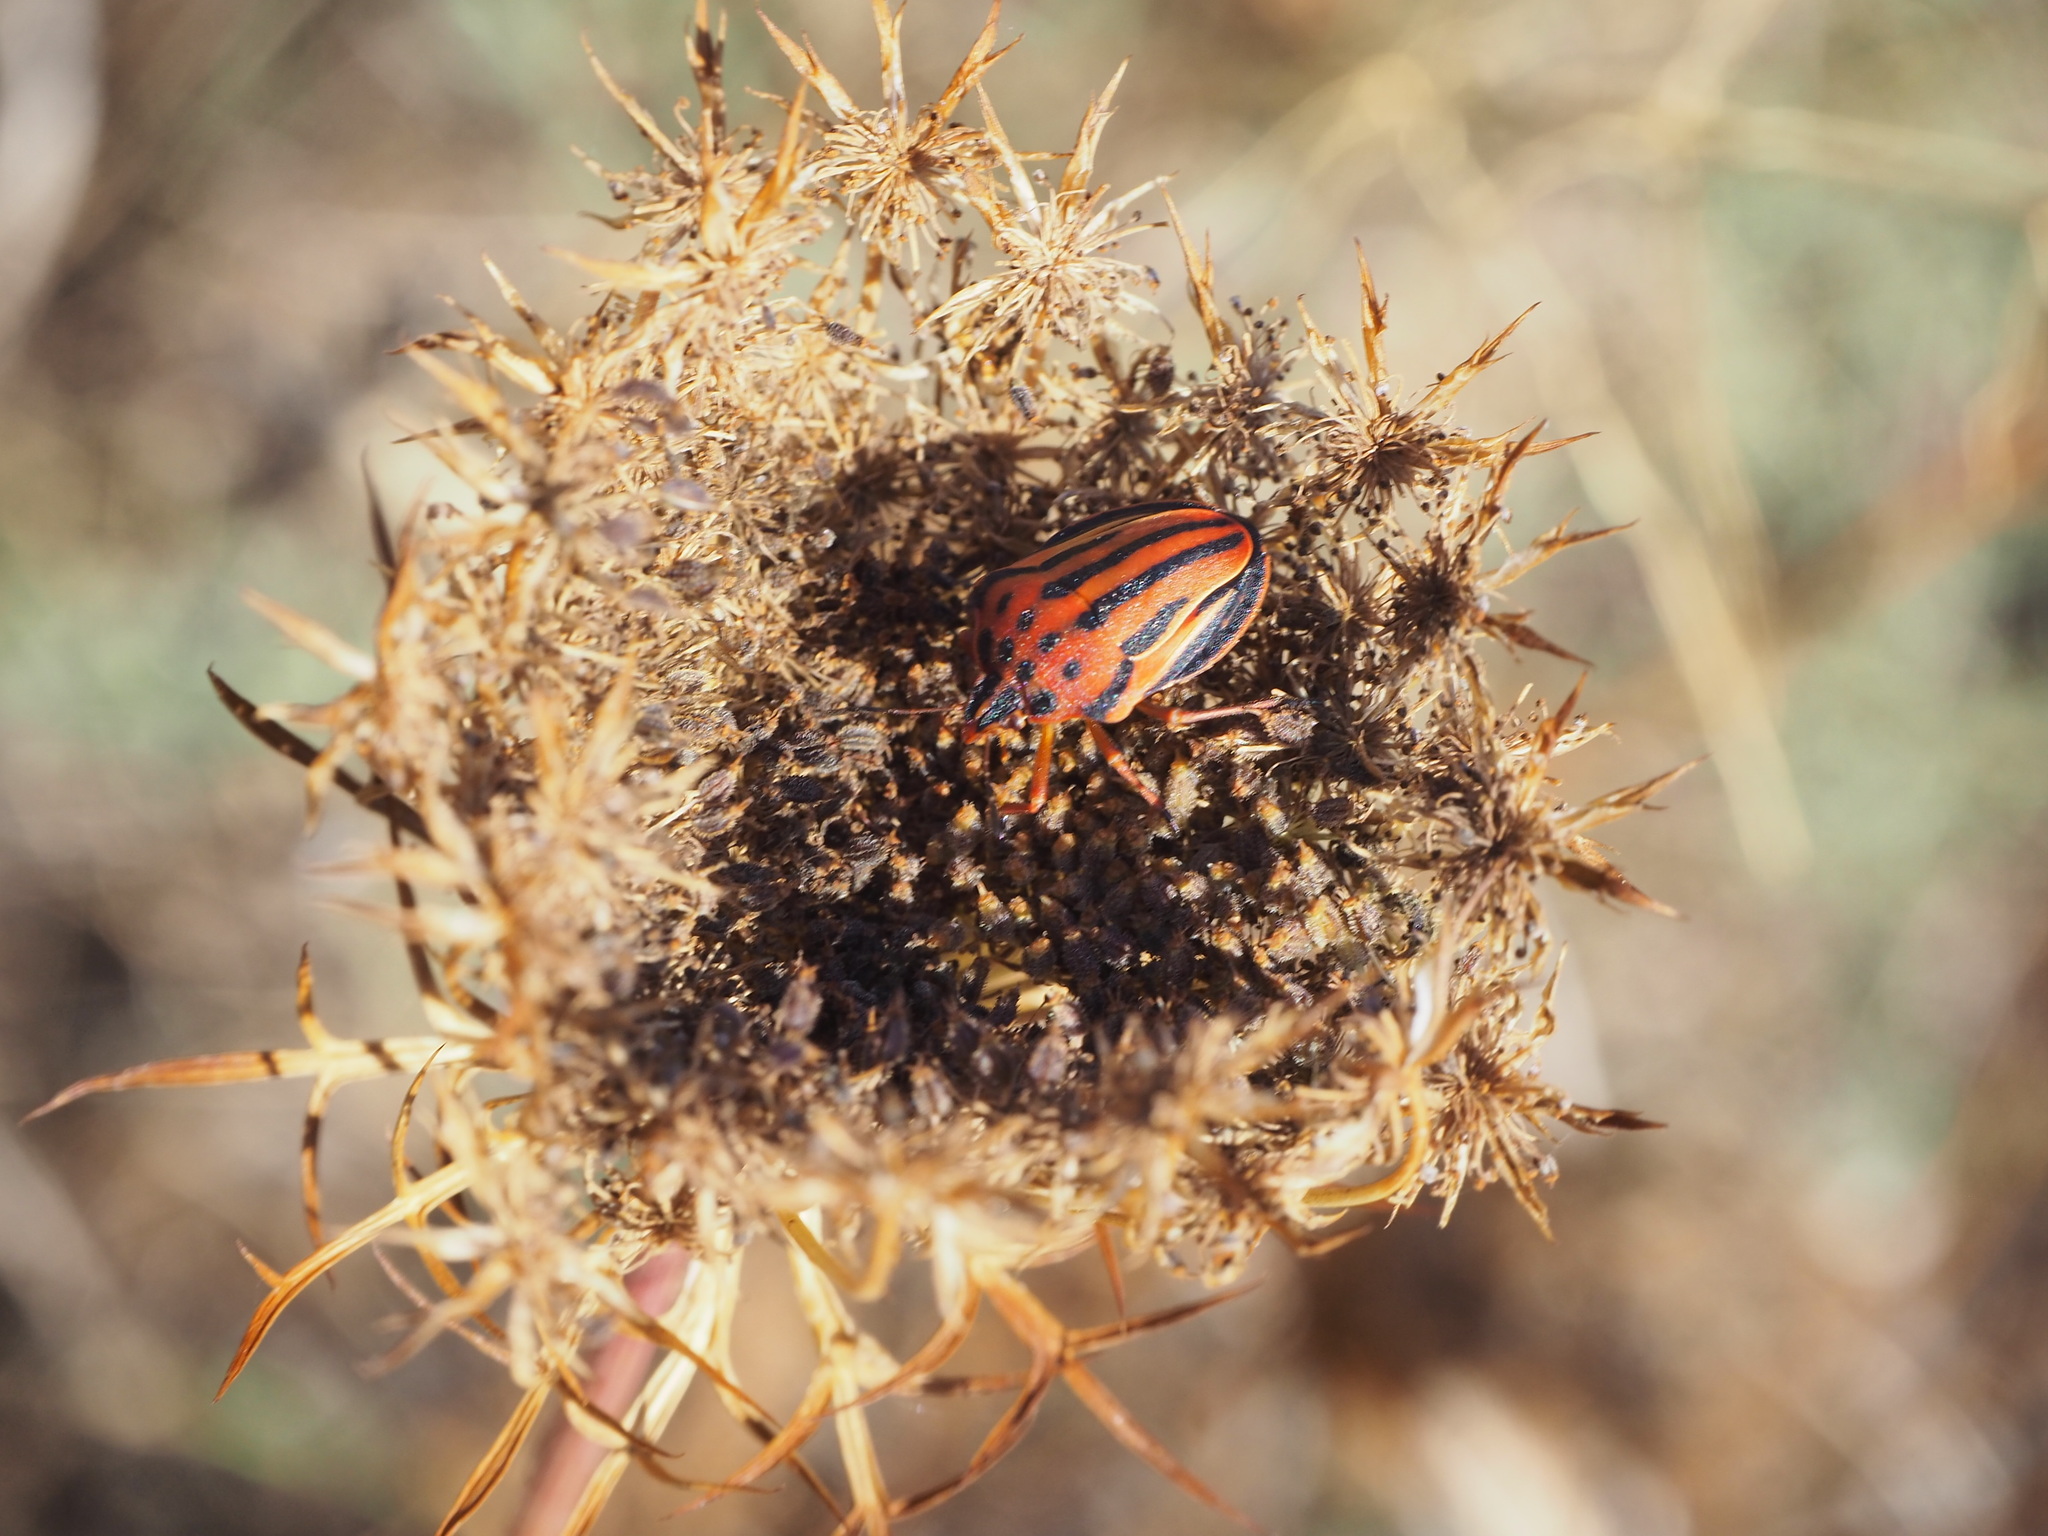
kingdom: Animalia
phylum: Arthropoda
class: Insecta
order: Hemiptera
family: Pentatomidae
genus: Graphosoma
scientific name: Graphosoma semipunctatum
